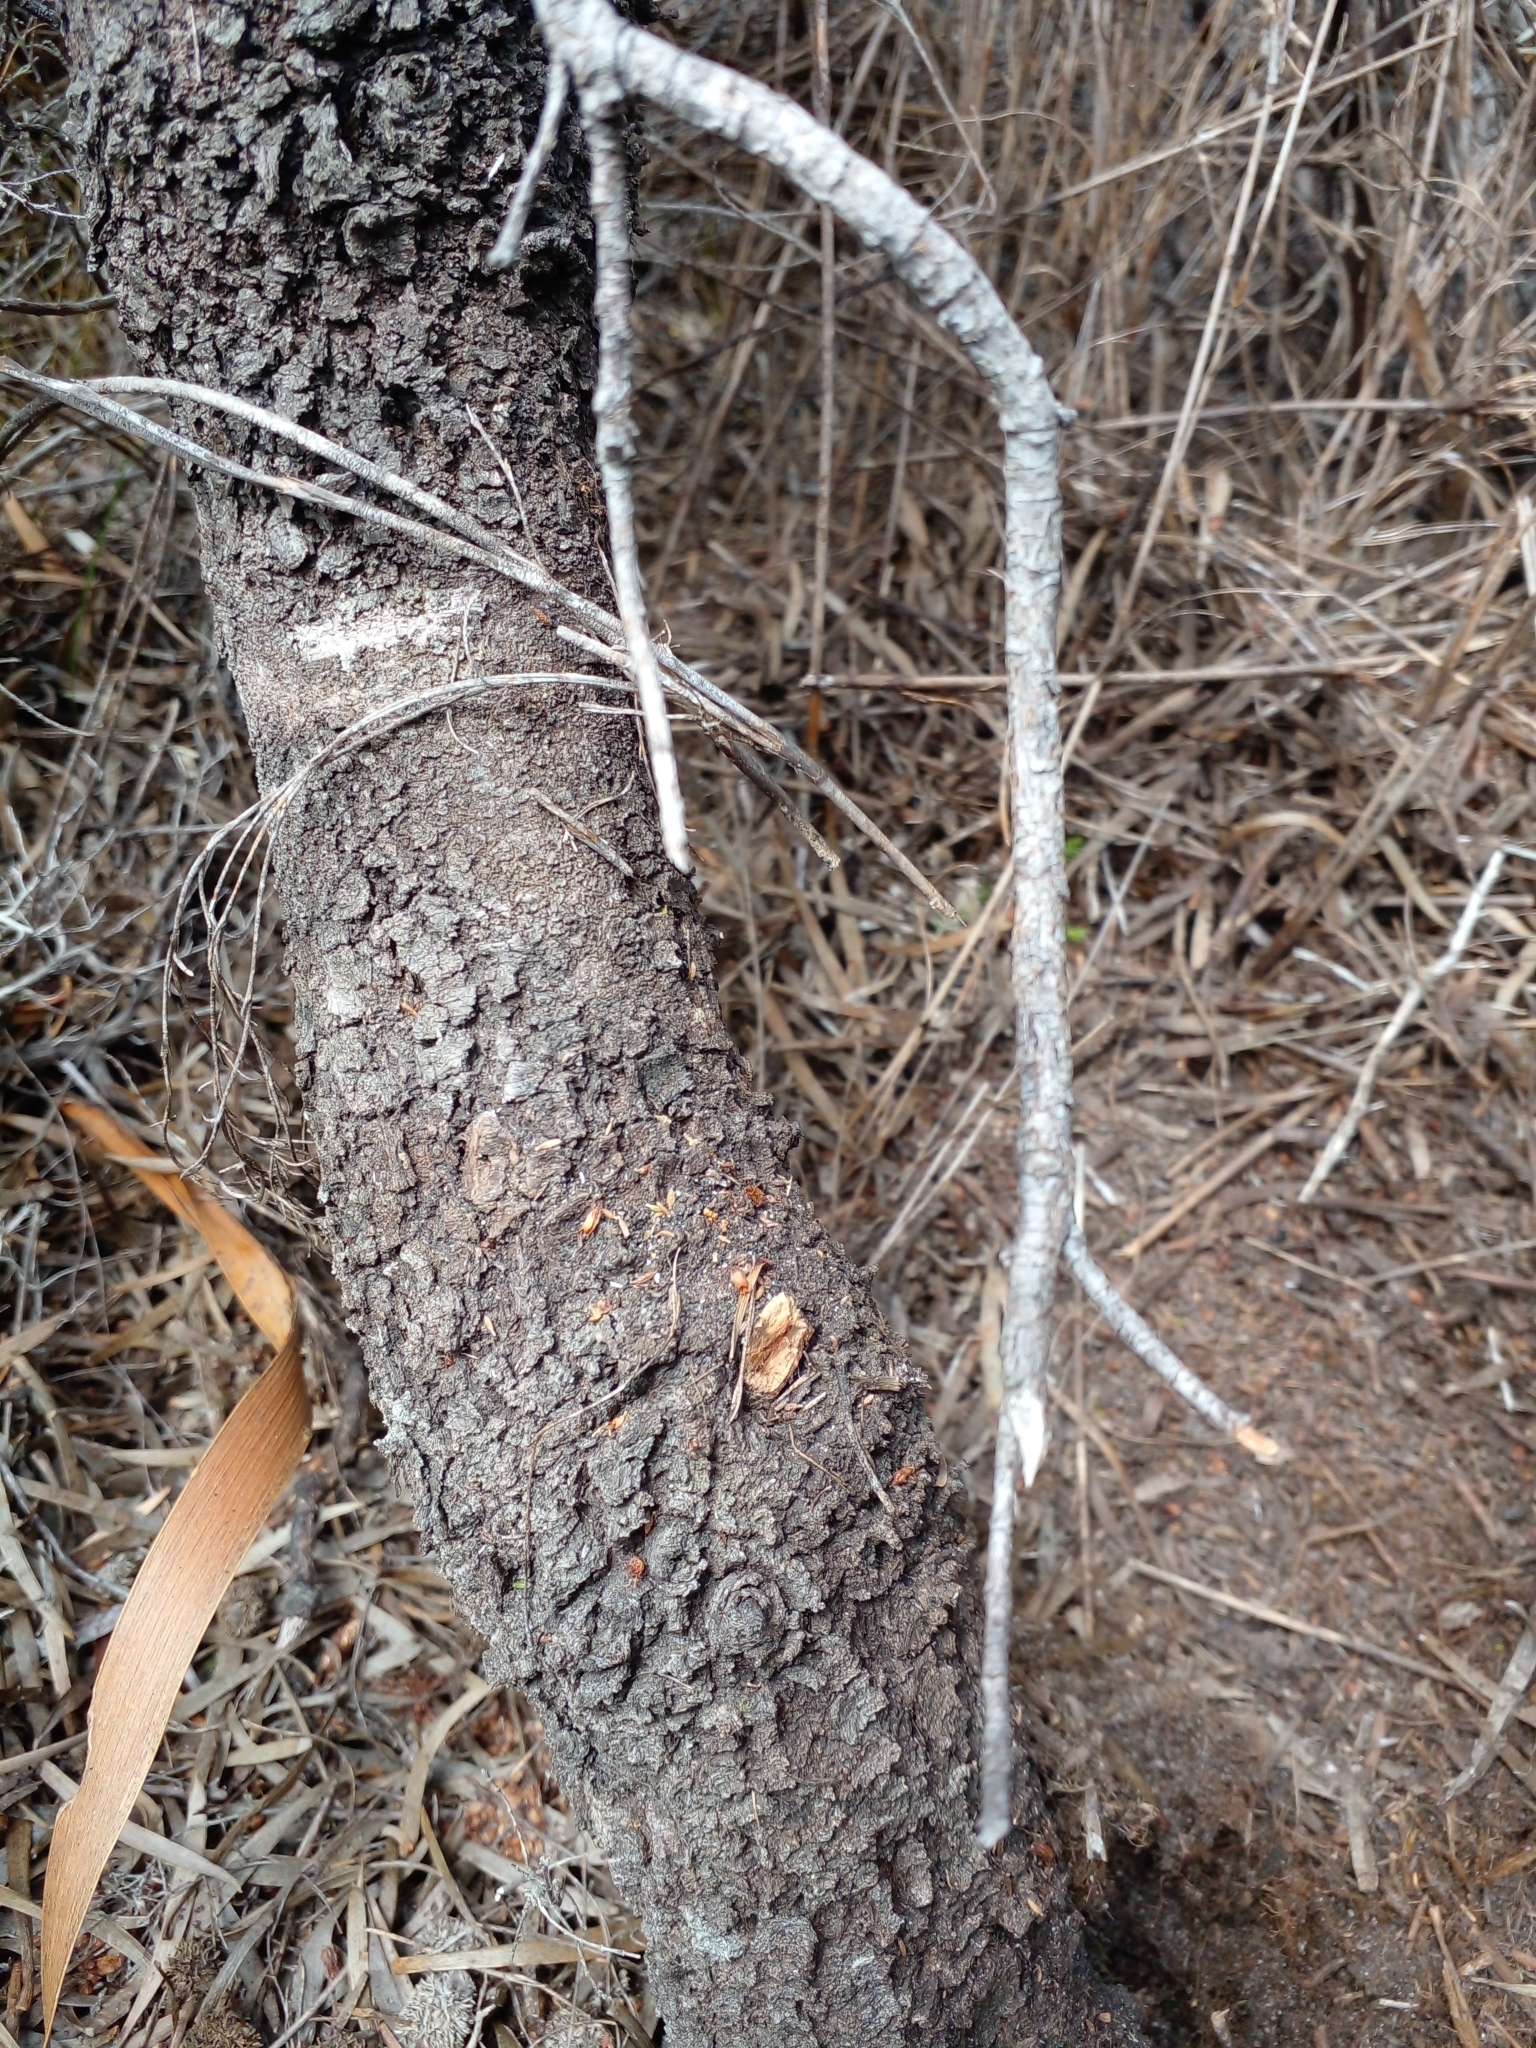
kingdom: Plantae
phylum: Tracheophyta
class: Magnoliopsida
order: Proteales
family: Proteaceae
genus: Leucadendron
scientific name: Leucadendron salignum
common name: Common sunshine conebush
